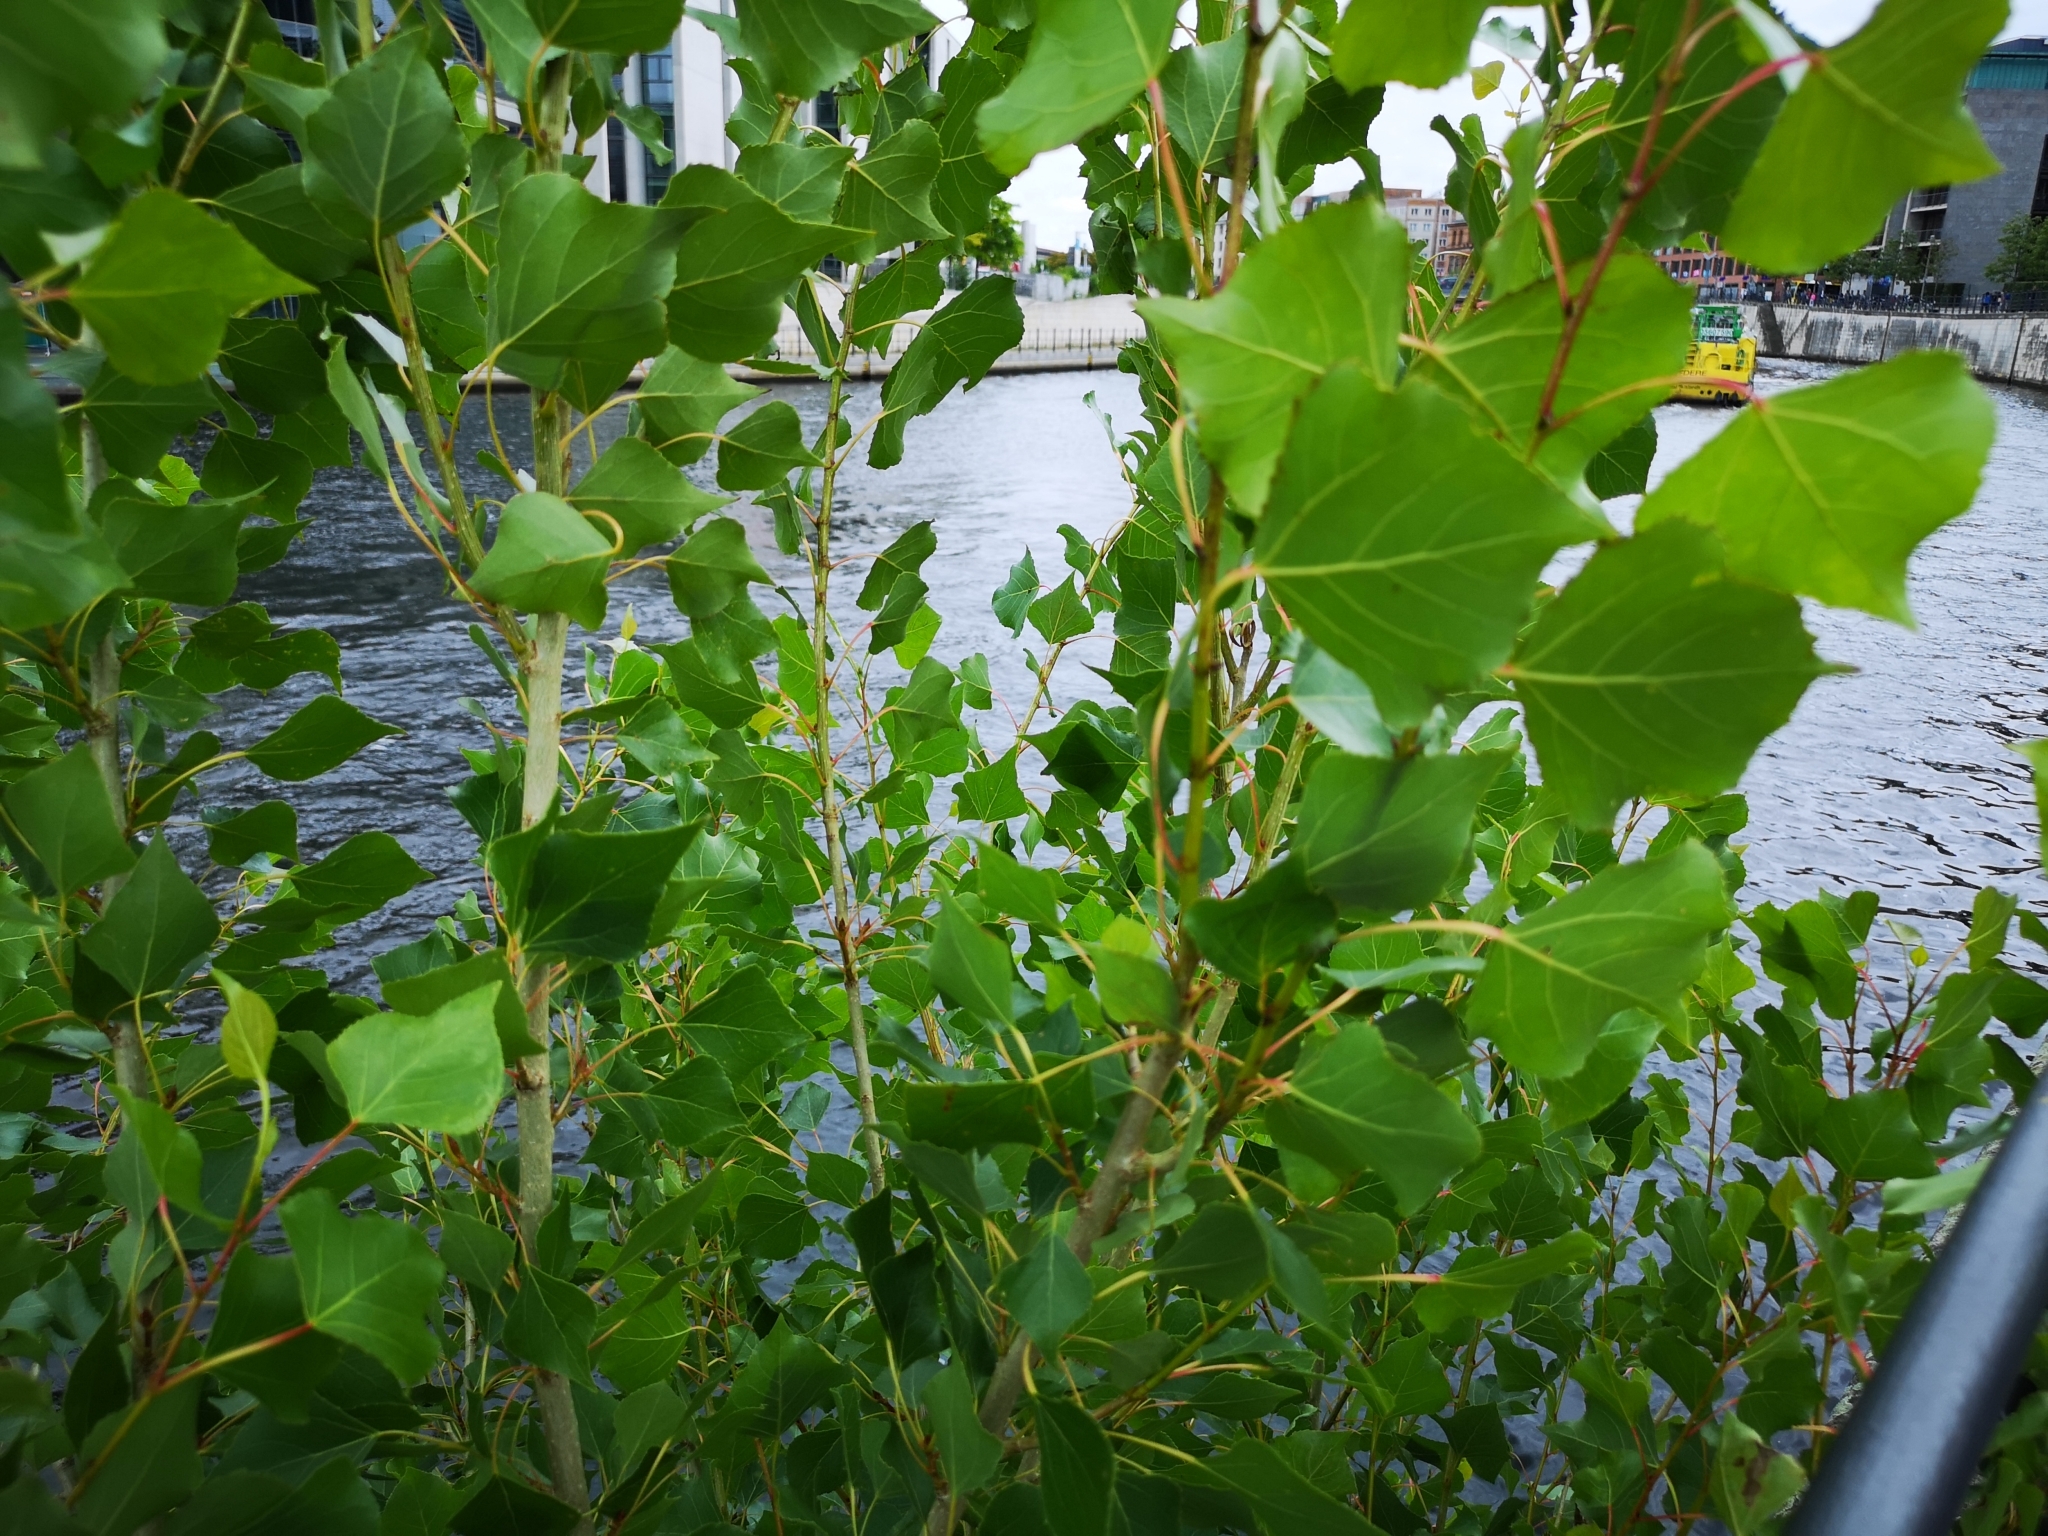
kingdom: Plantae
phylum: Tracheophyta
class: Magnoliopsida
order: Malpighiales
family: Salicaceae
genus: Populus
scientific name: Populus nigra
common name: Black poplar
